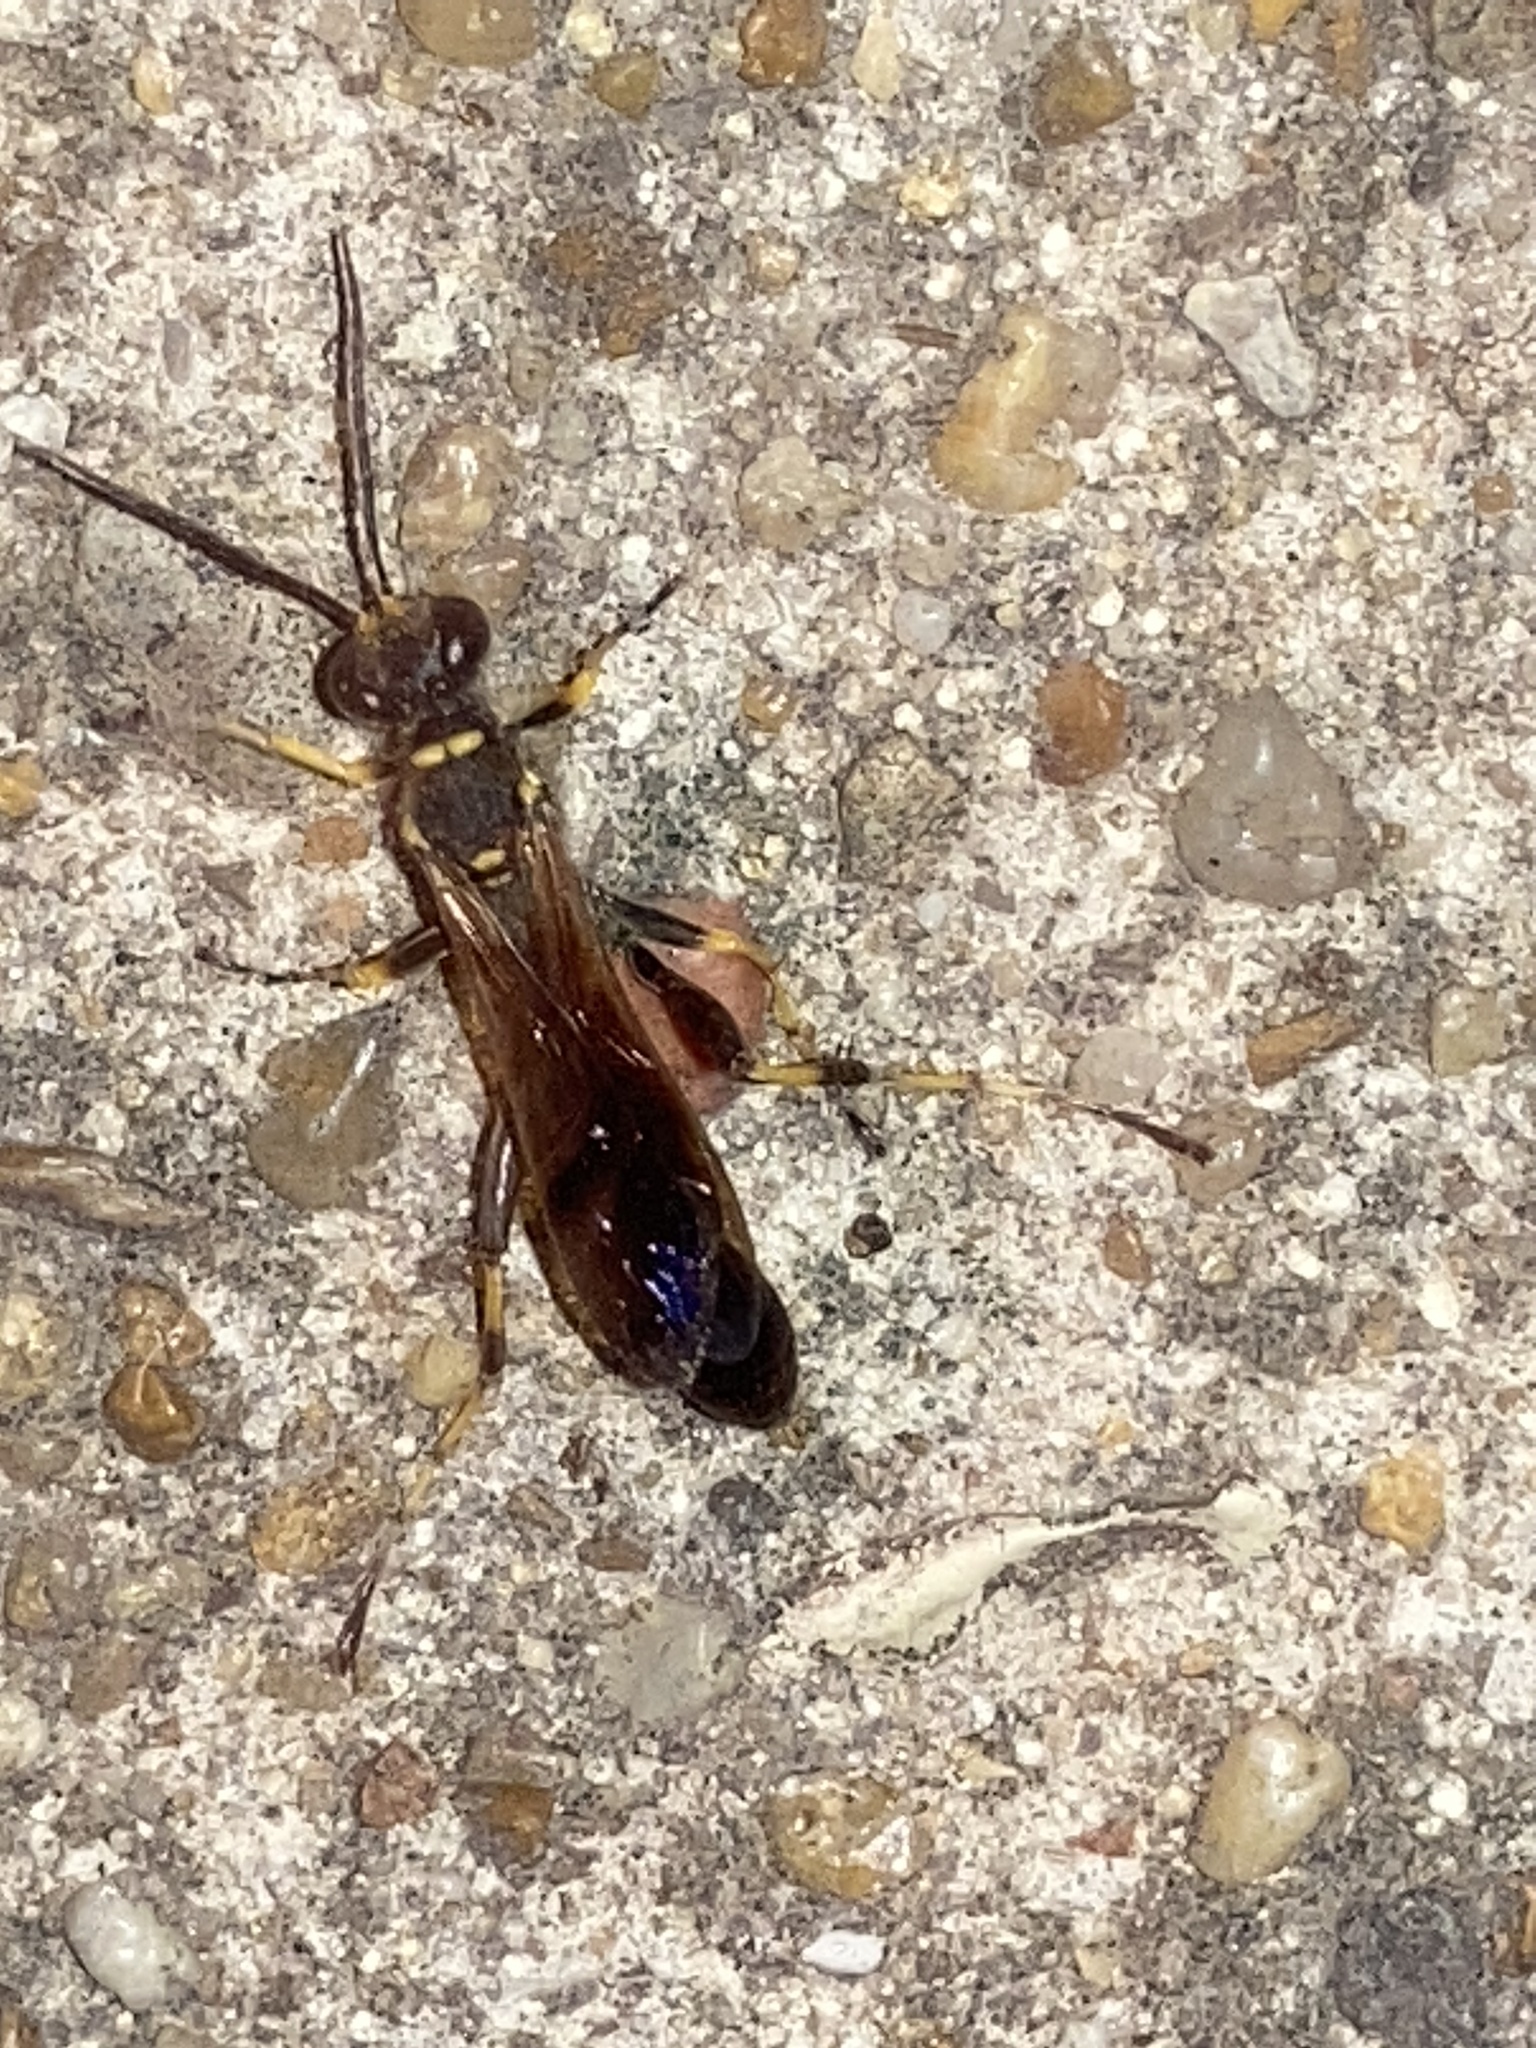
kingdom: Animalia
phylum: Arthropoda
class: Insecta
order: Hymenoptera
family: Sphecidae
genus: Sceliphron
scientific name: Sceliphron caementarium
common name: Mud dauber
